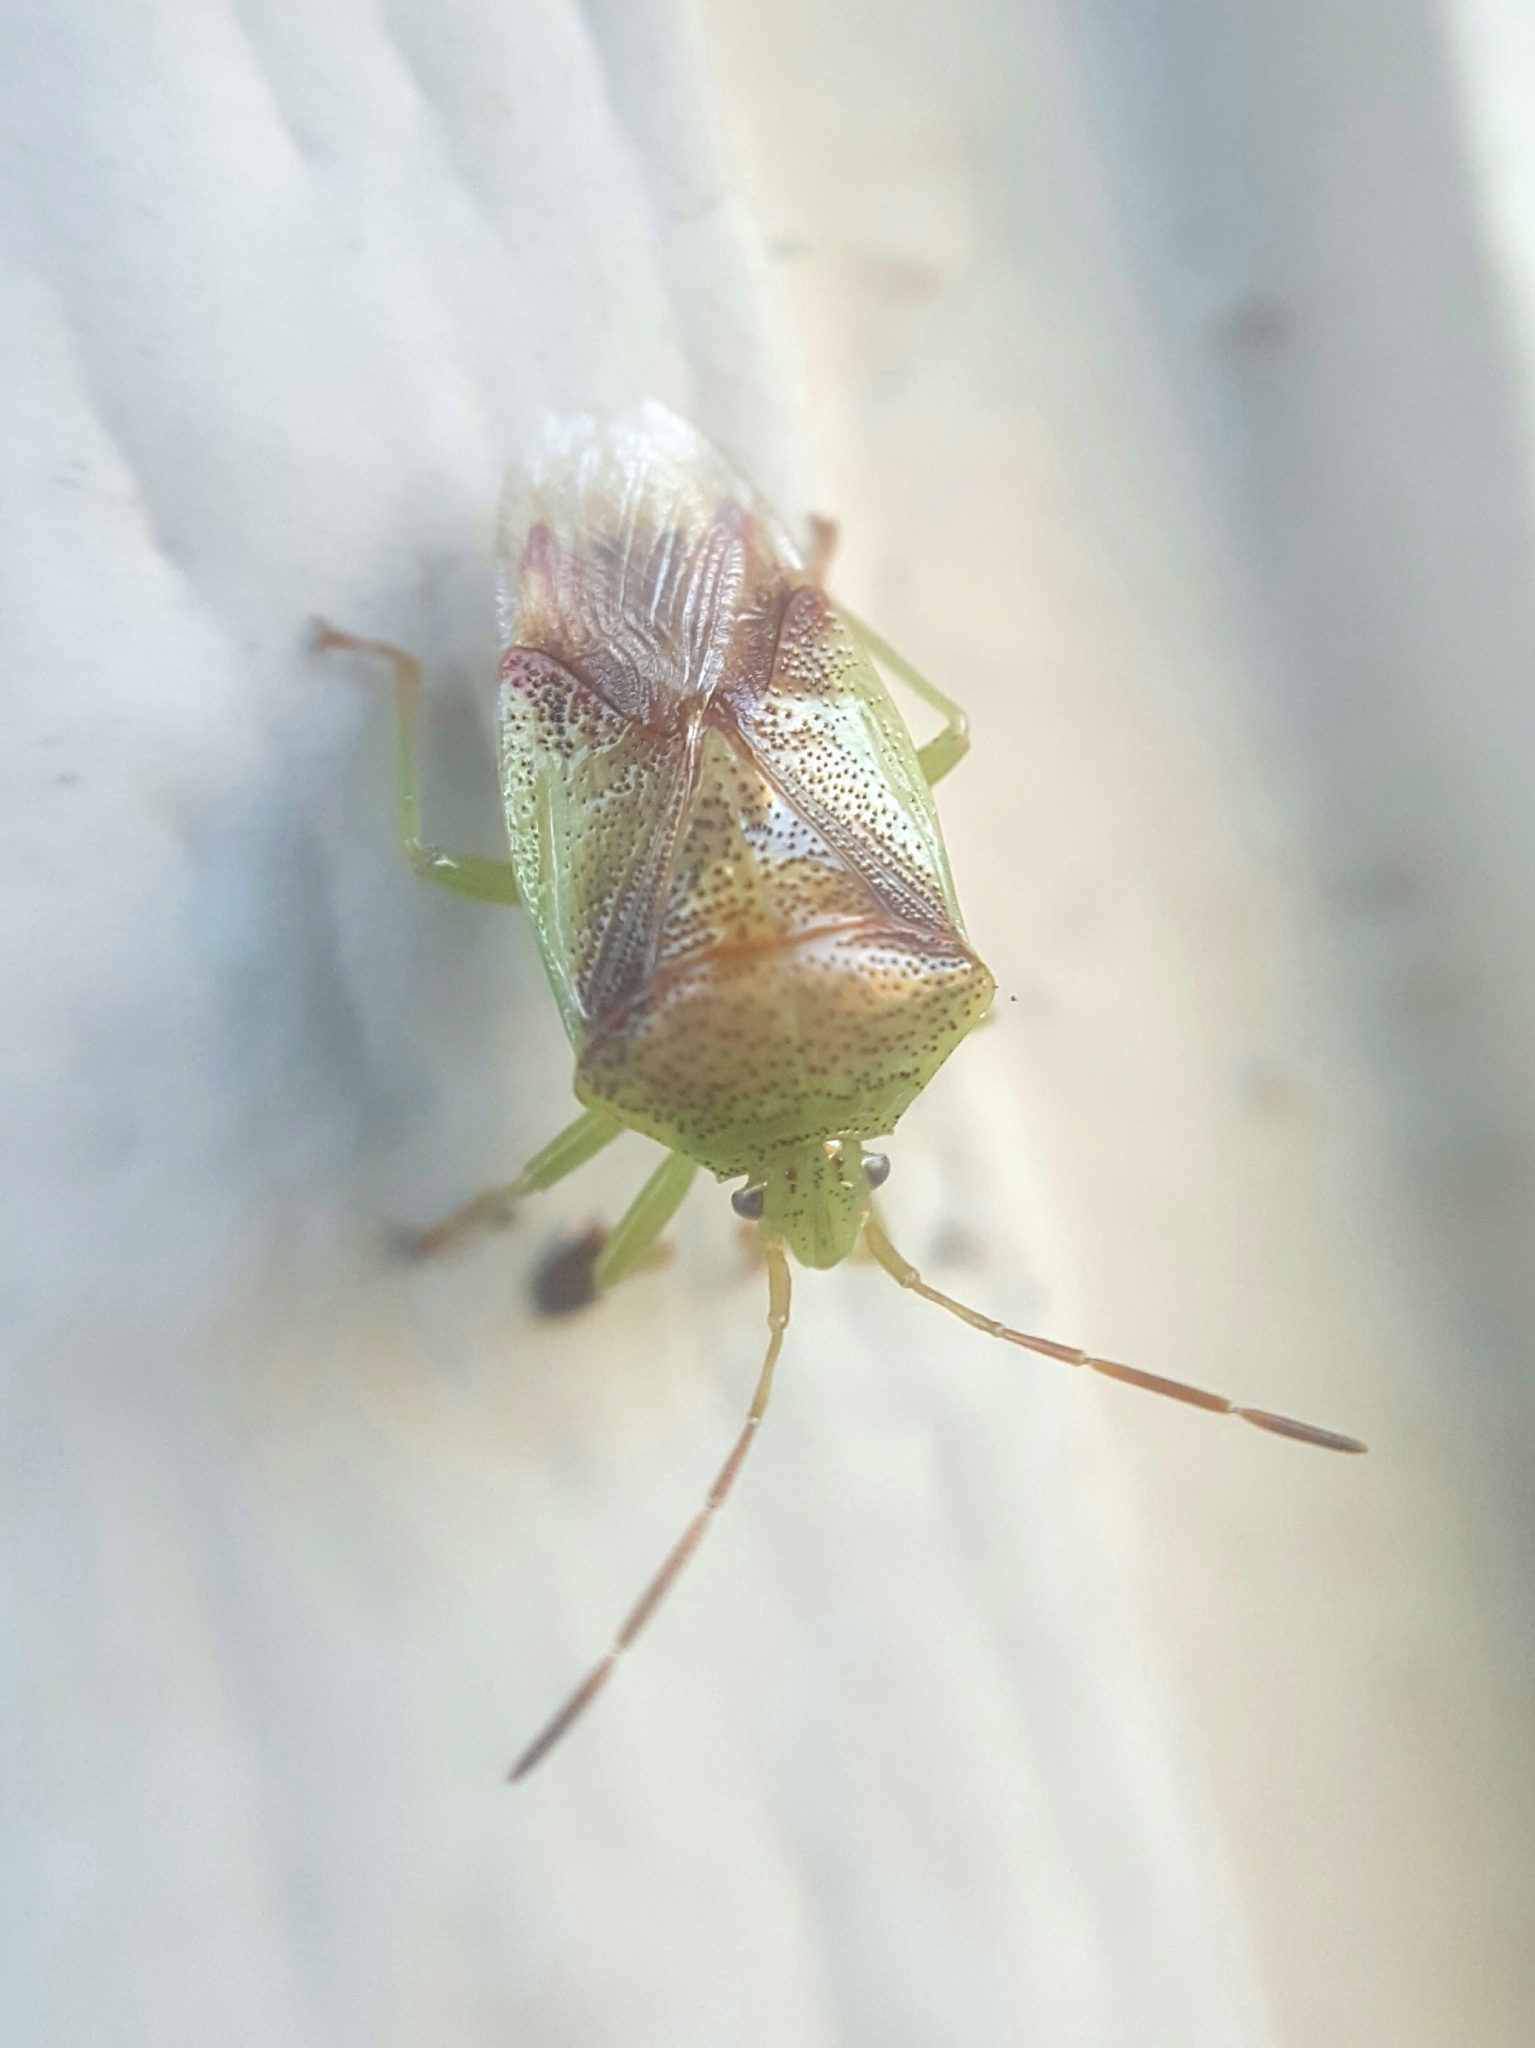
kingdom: Animalia
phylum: Arthropoda
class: Insecta
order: Hemiptera
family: Acanthosomatidae
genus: Elasmostethus
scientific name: Elasmostethus cruciatus
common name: Red-cross shield bug
